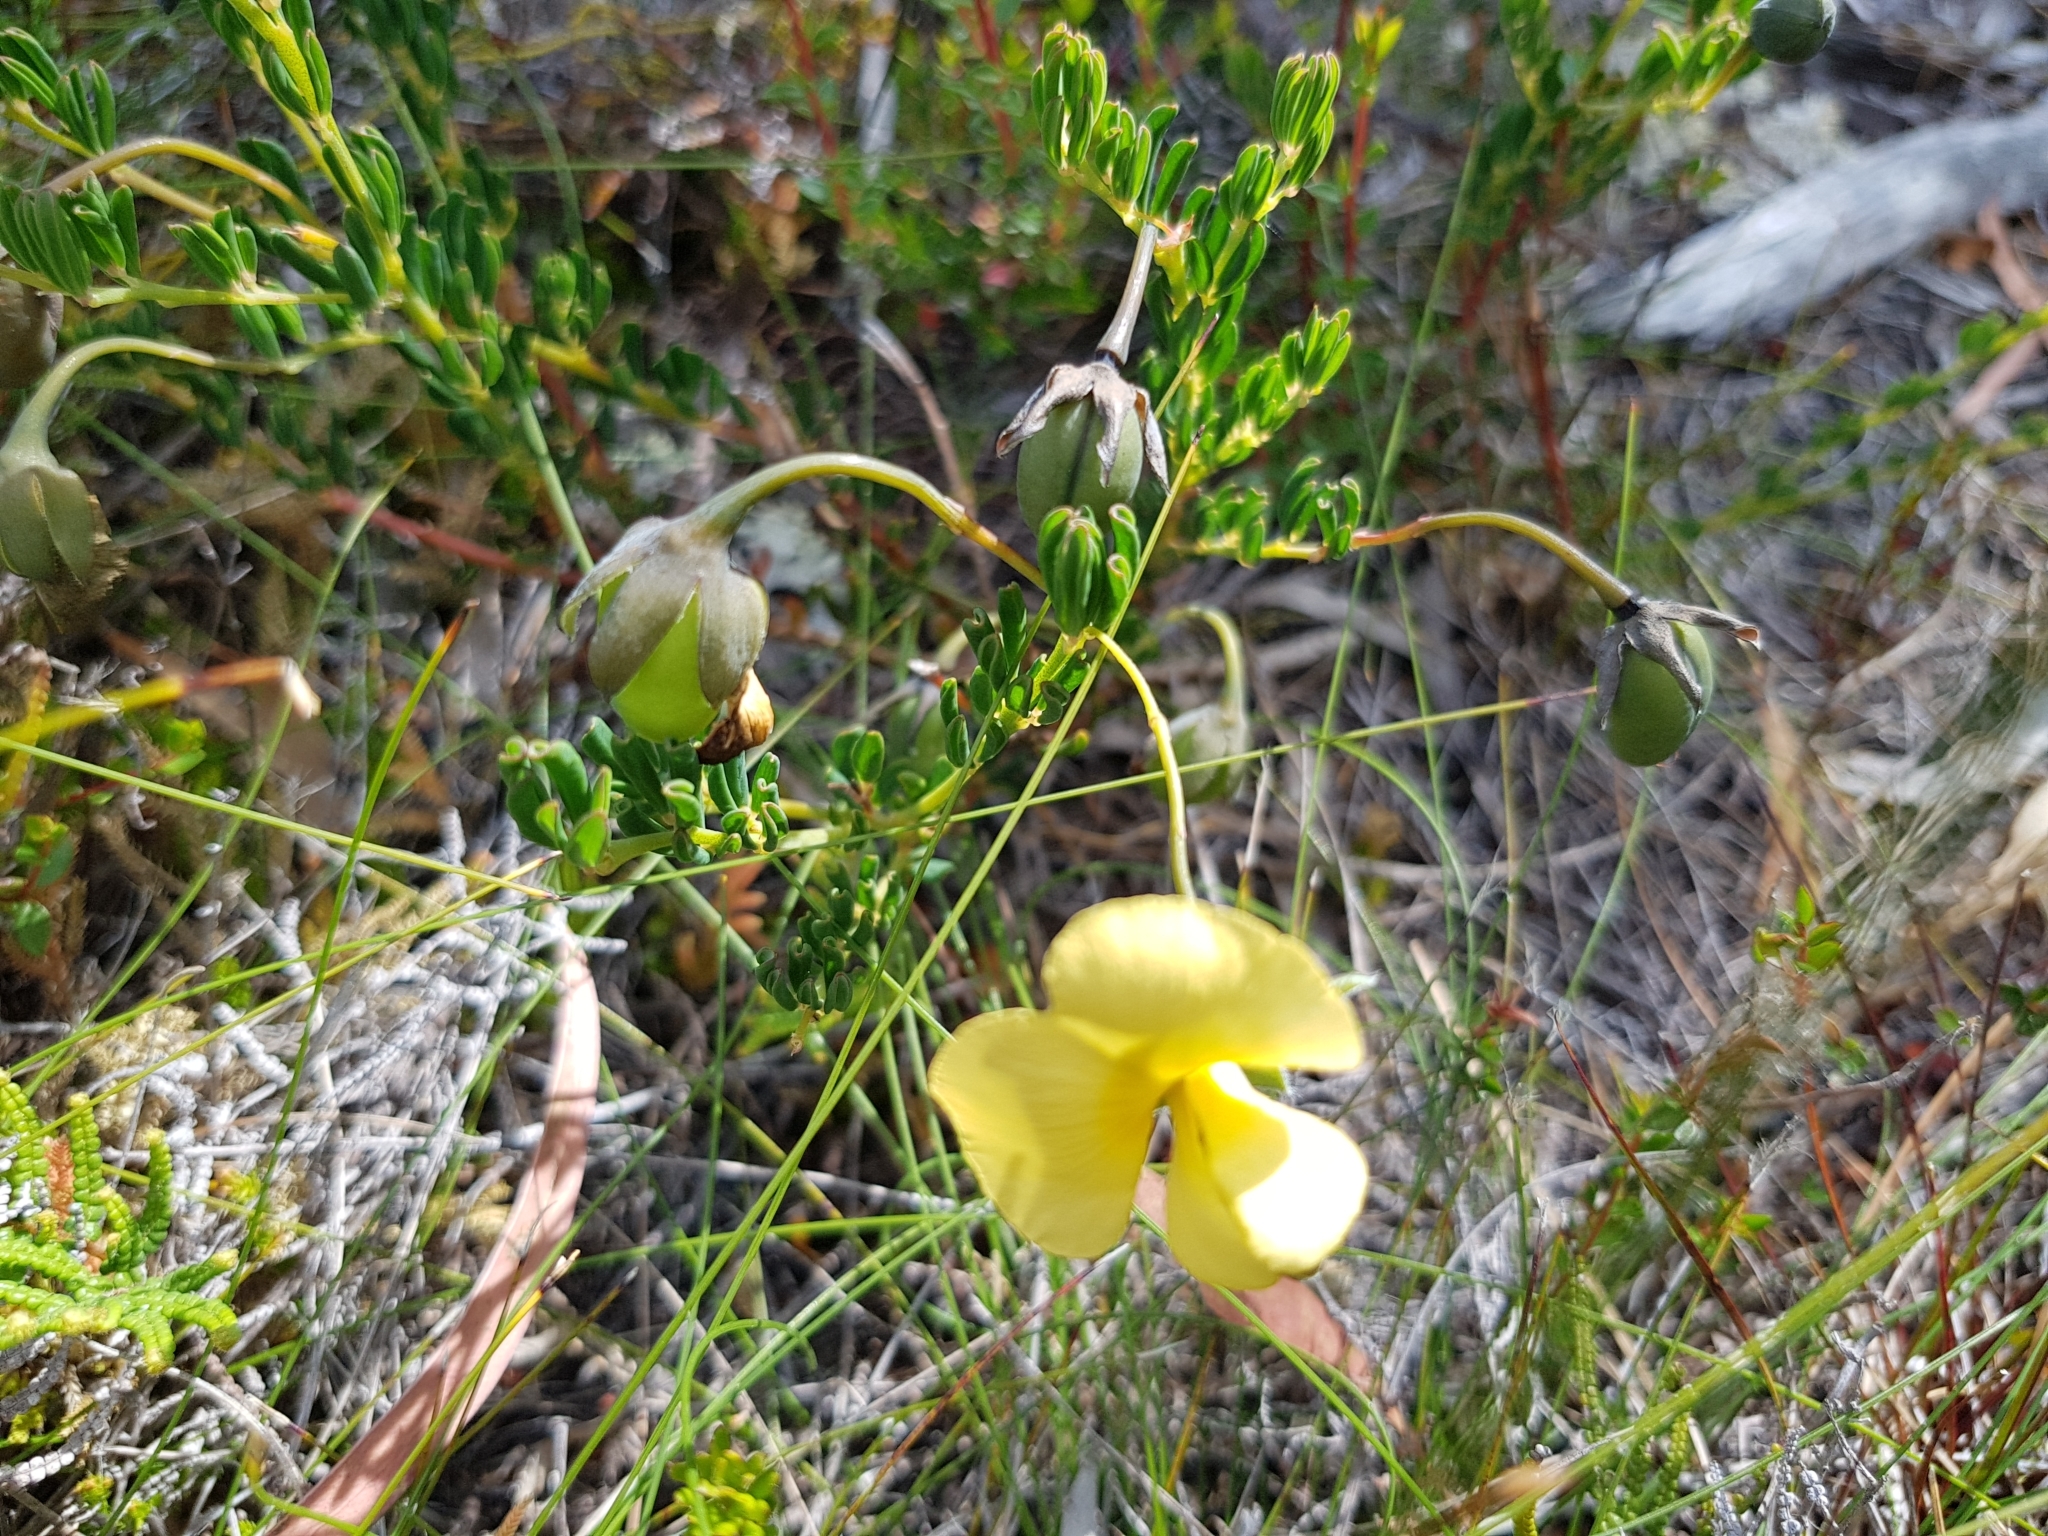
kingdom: Plantae
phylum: Tracheophyta
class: Magnoliopsida
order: Fabales
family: Fabaceae
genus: Gompholobium
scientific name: Gompholobium huegelii
